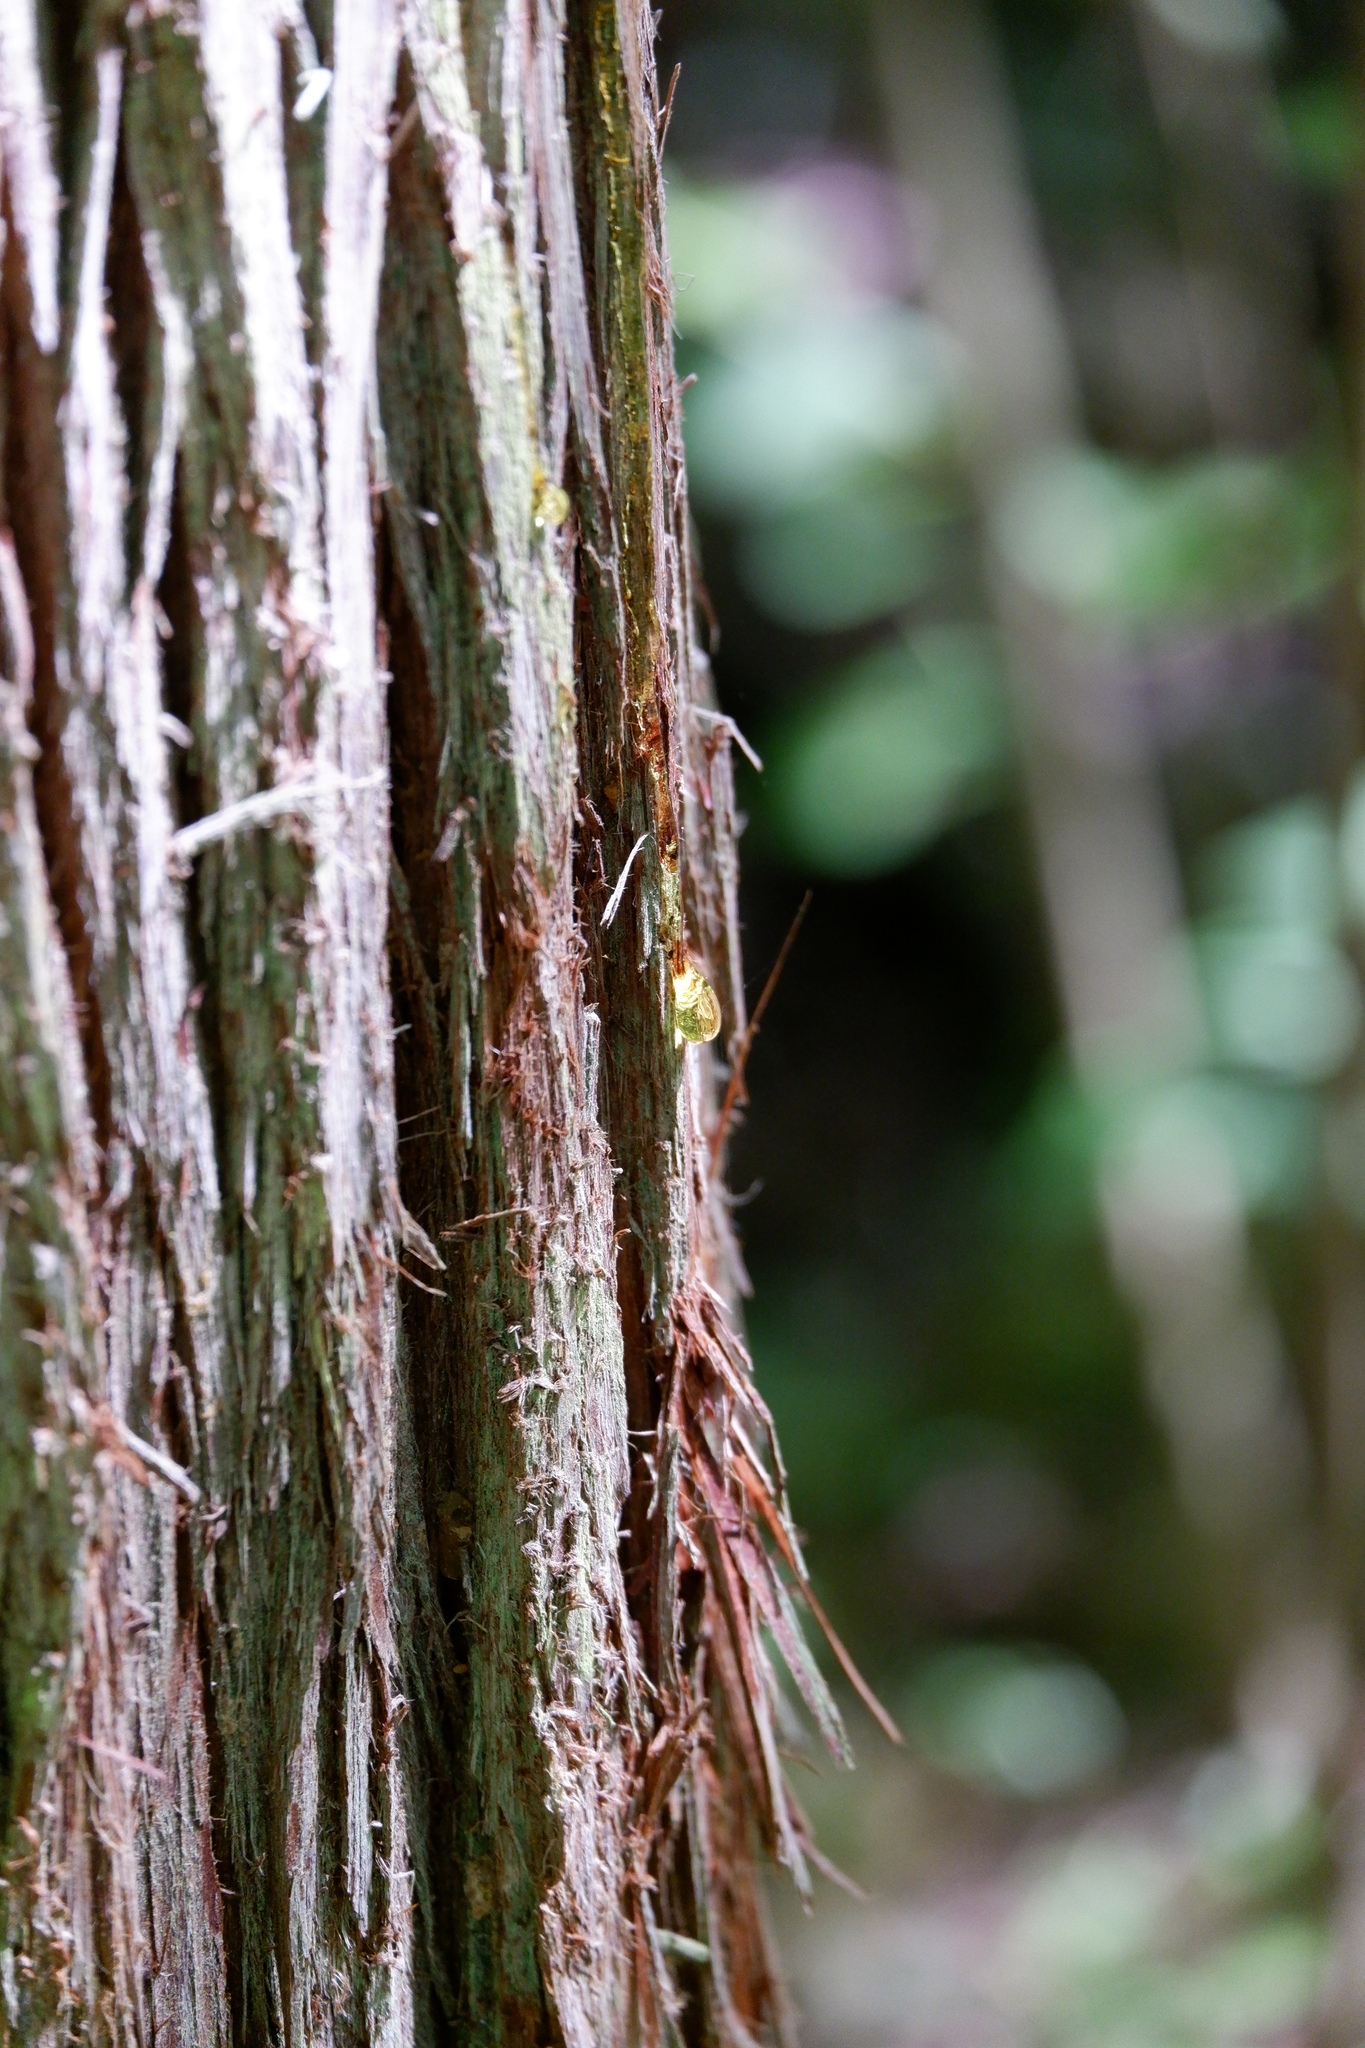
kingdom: Plantae
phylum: Tracheophyta
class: Pinopsida
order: Pinales
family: Cupressaceae
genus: Chamaecyparis
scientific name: Chamaecyparis thyoides
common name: Atlantic white cedar
